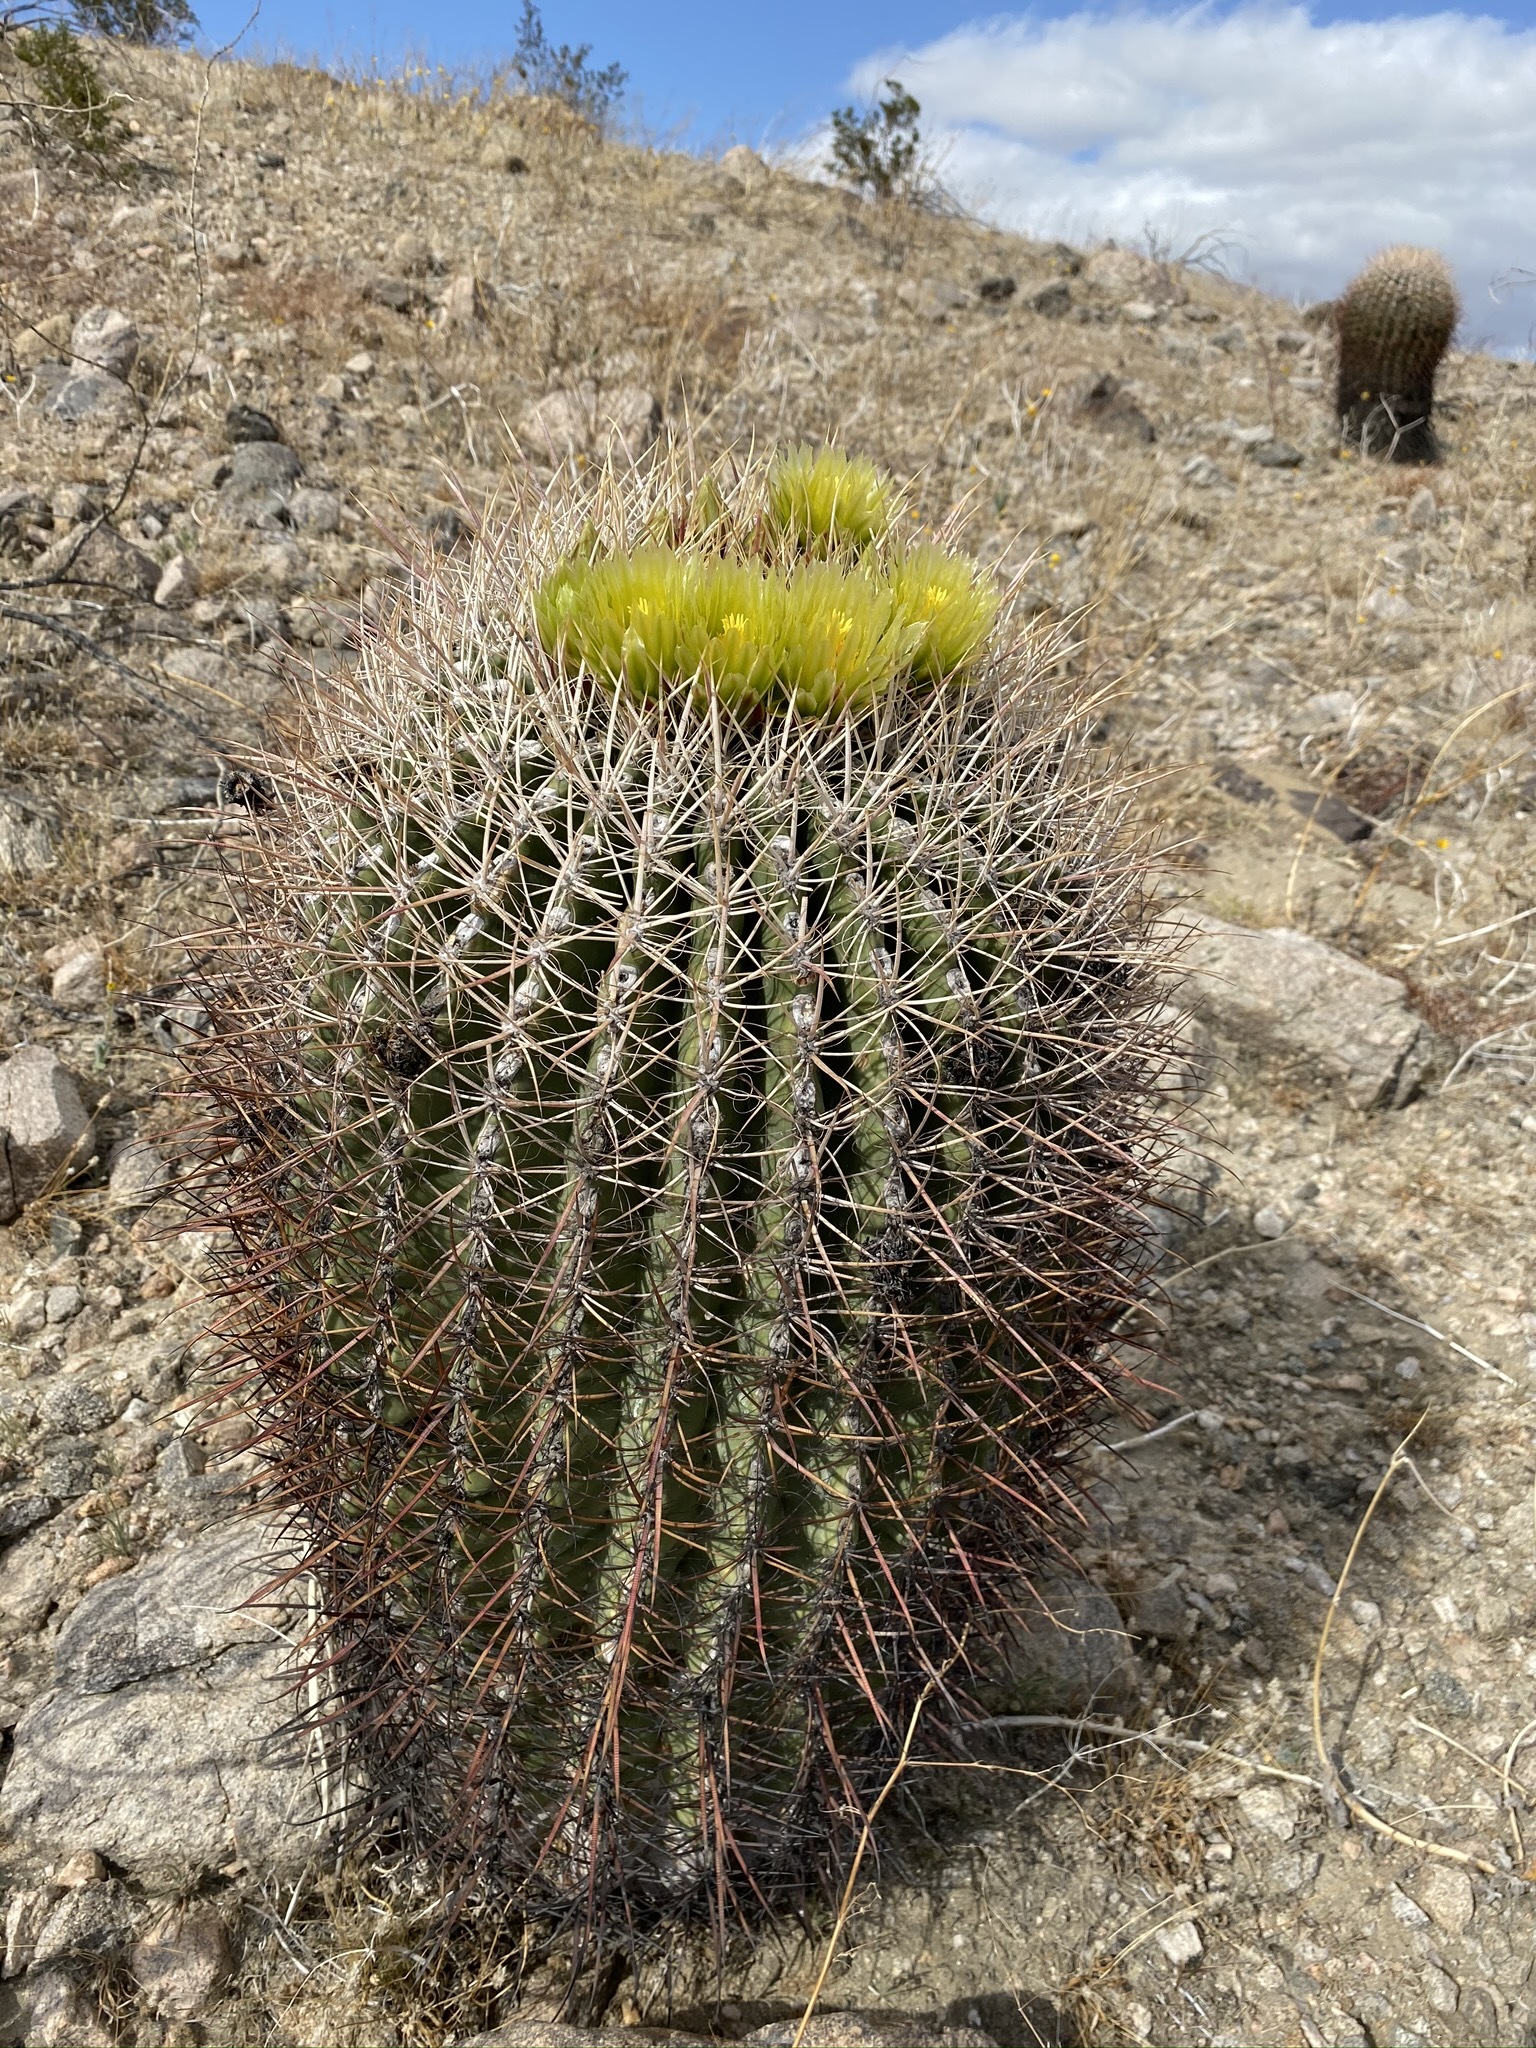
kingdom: Plantae
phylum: Tracheophyta
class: Magnoliopsida
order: Caryophyllales
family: Cactaceae
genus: Ferocactus
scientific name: Ferocactus cylindraceus
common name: California barrel cactus
